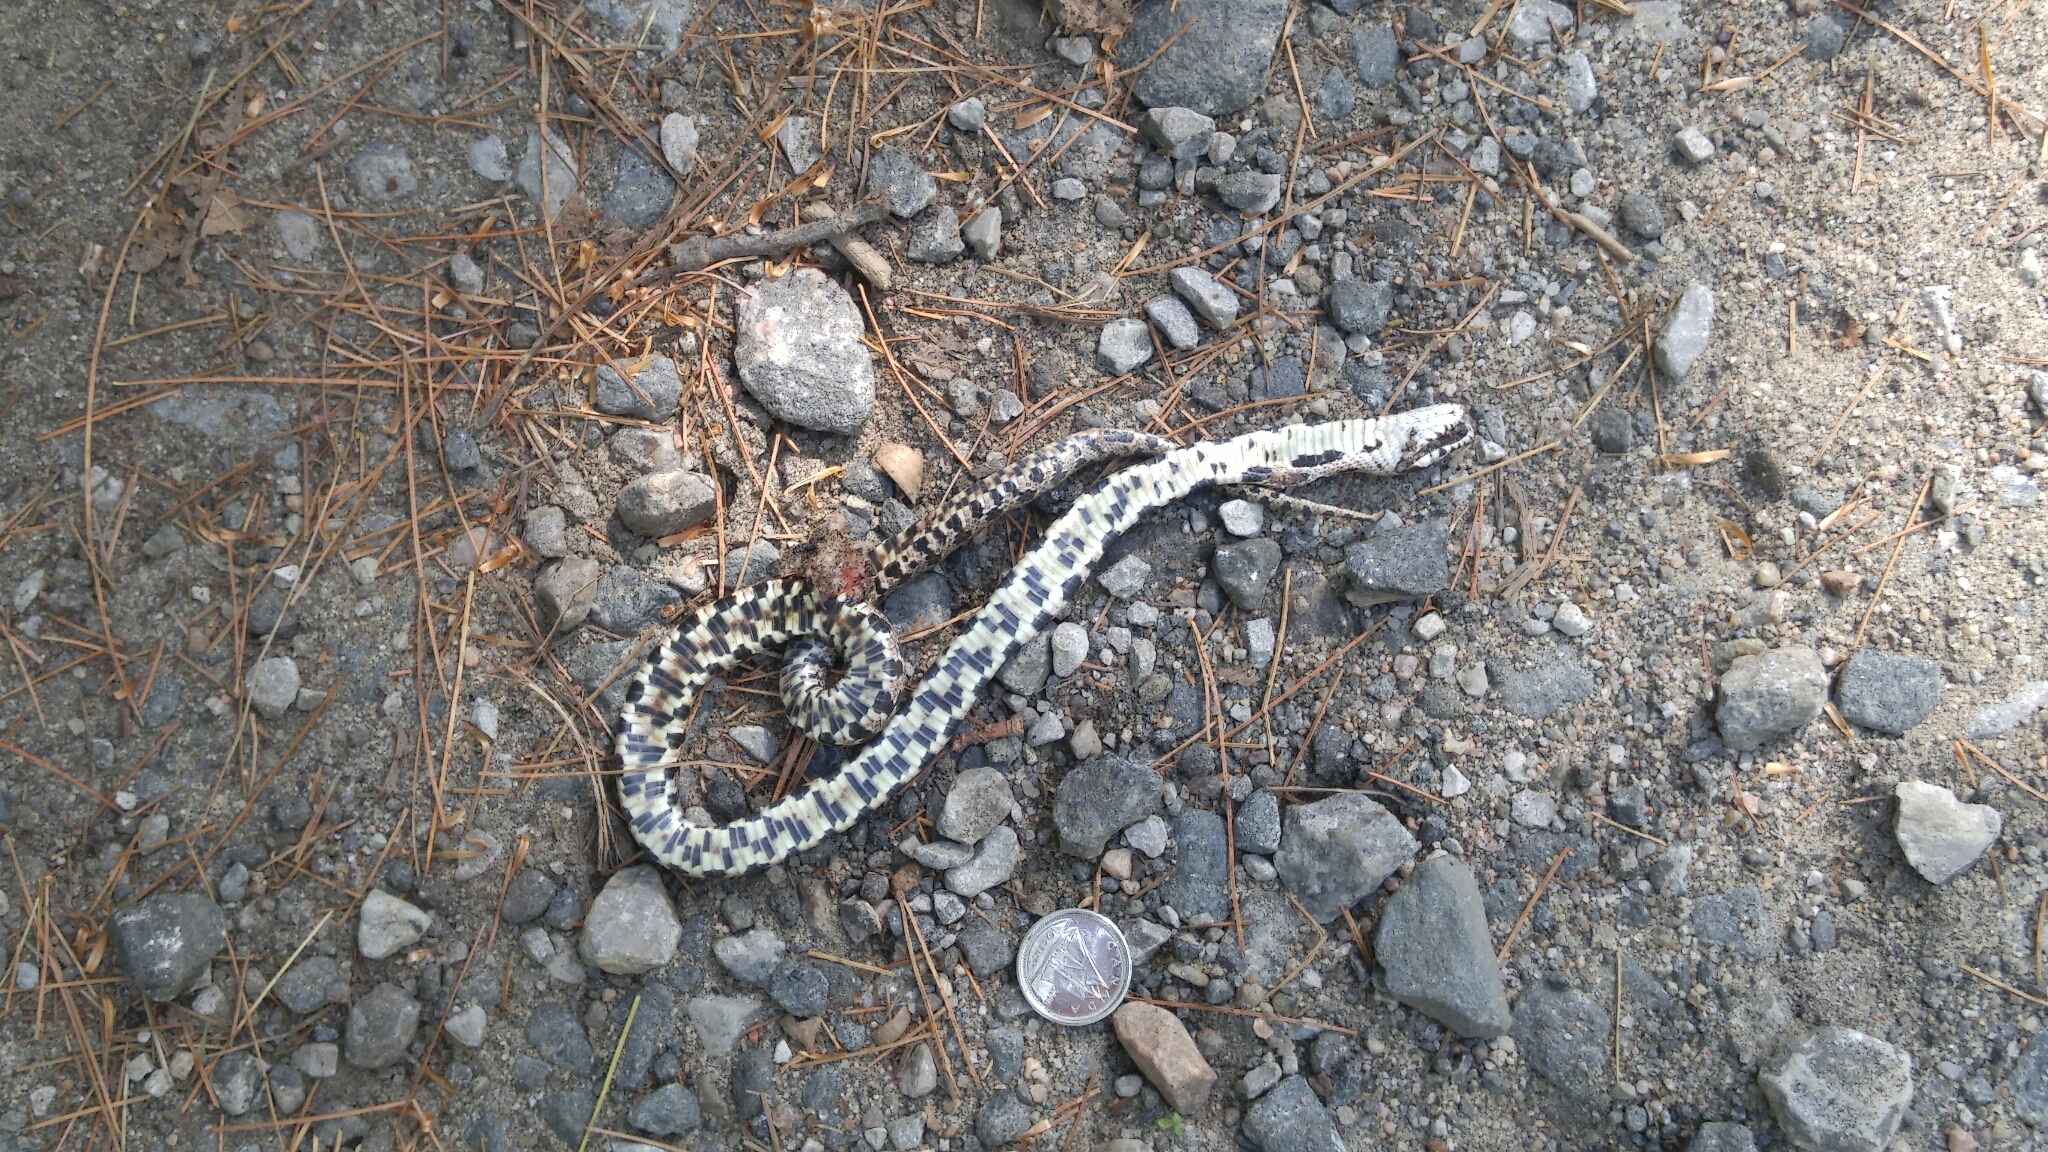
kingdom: Animalia
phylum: Chordata
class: Squamata
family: Colubridae
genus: Pantherophis
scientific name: Pantherophis vulpinus
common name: Eastern fox snake
